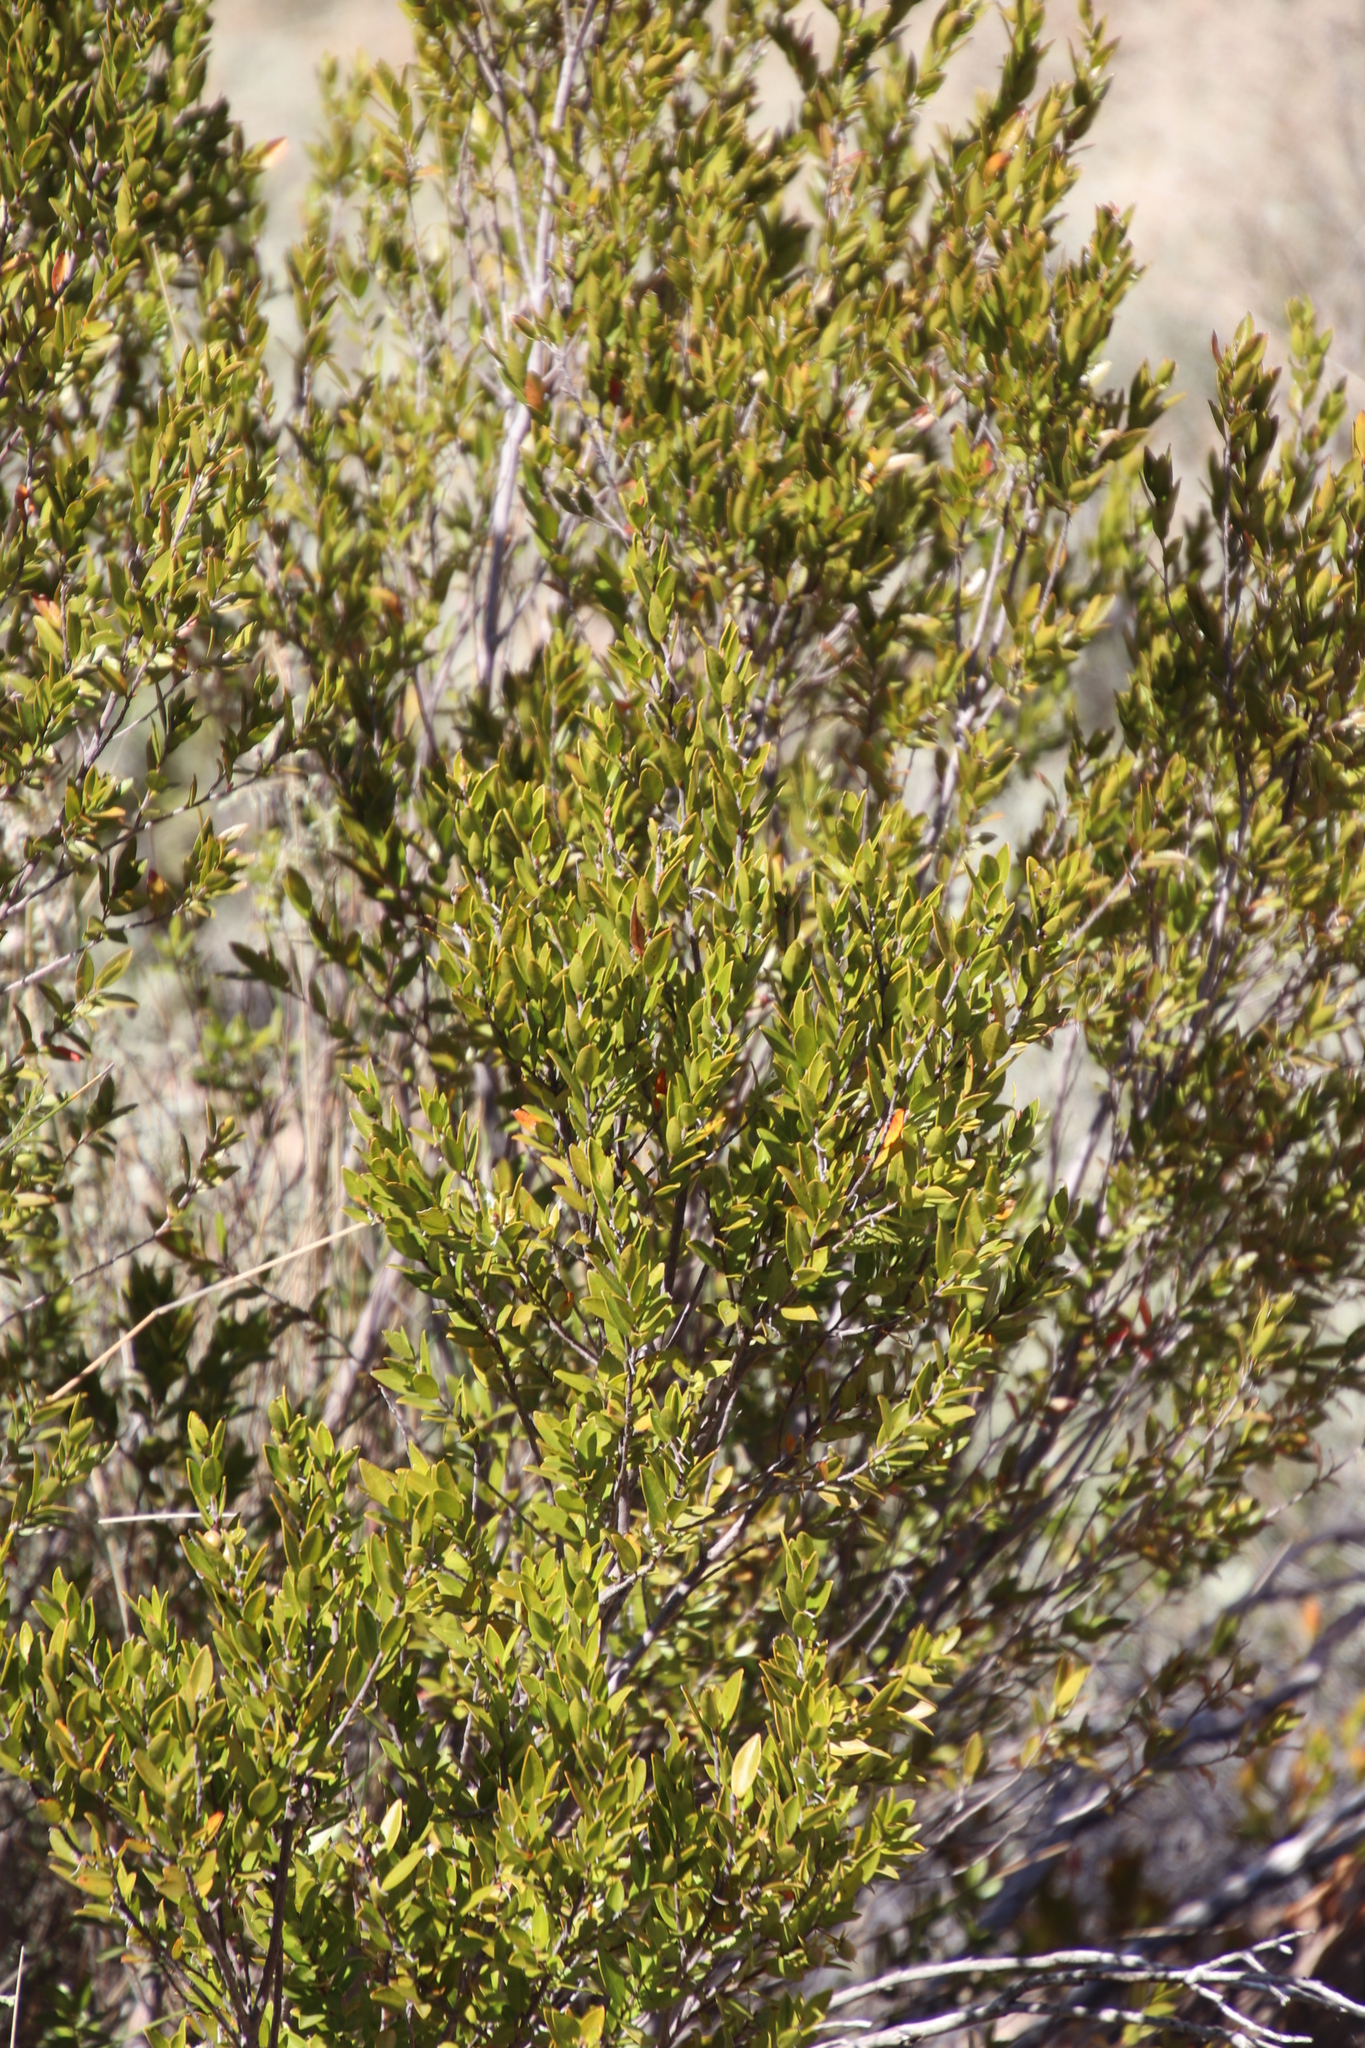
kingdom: Plantae
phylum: Tracheophyta
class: Magnoliopsida
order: Ericales
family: Ebenaceae
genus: Diospyros
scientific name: Diospyros glabra
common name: Fynbos star apple
